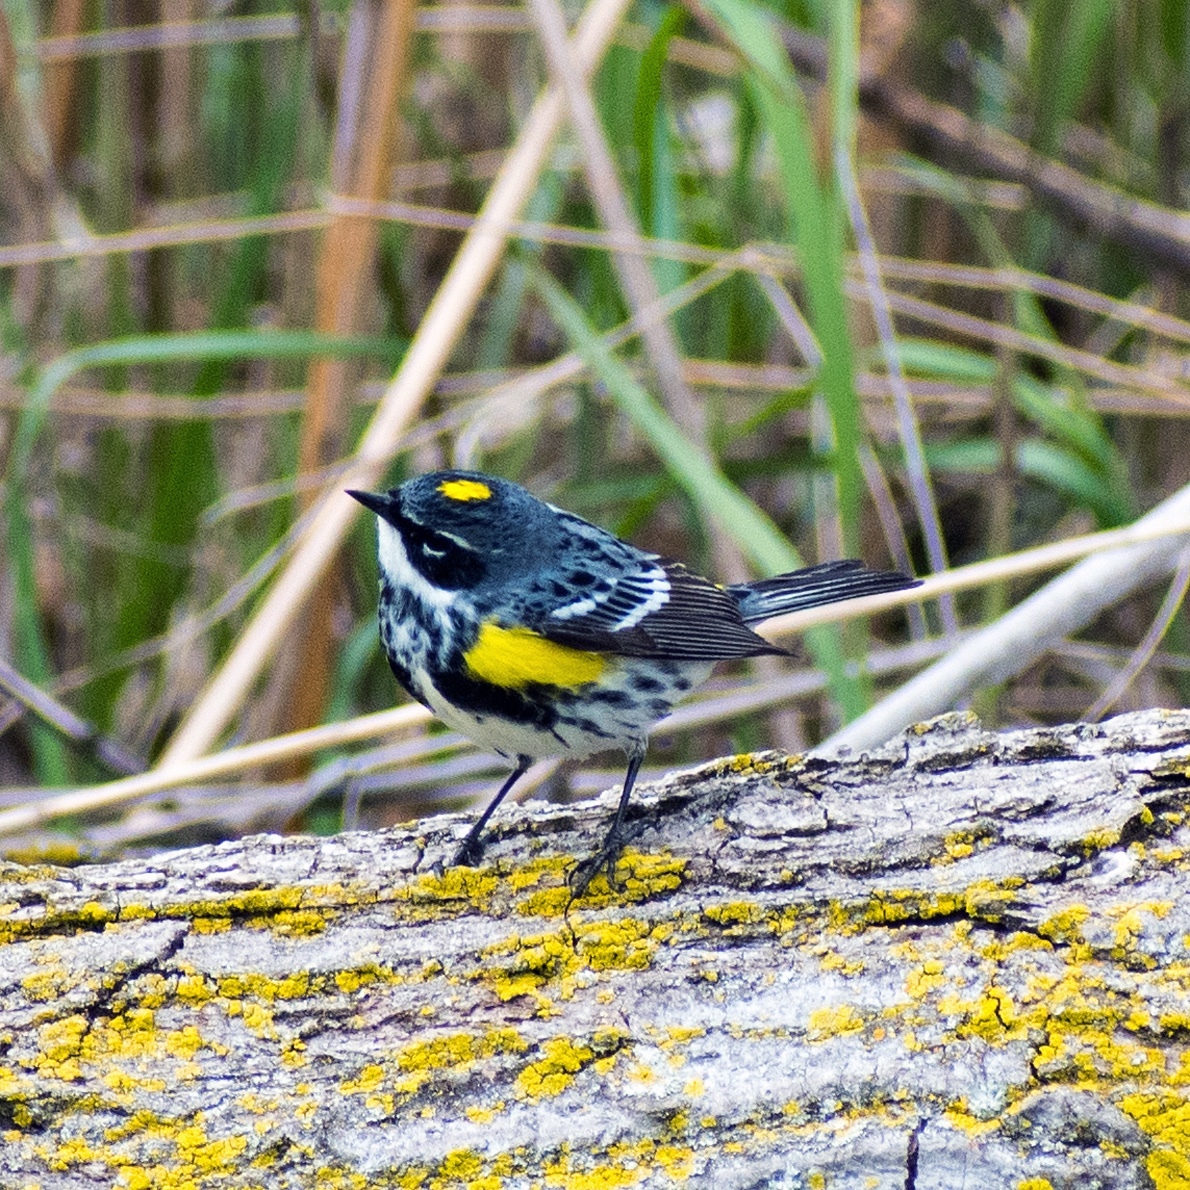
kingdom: Animalia
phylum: Chordata
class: Aves
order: Passeriformes
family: Parulidae
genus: Setophaga
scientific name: Setophaga coronata
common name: Myrtle warbler
